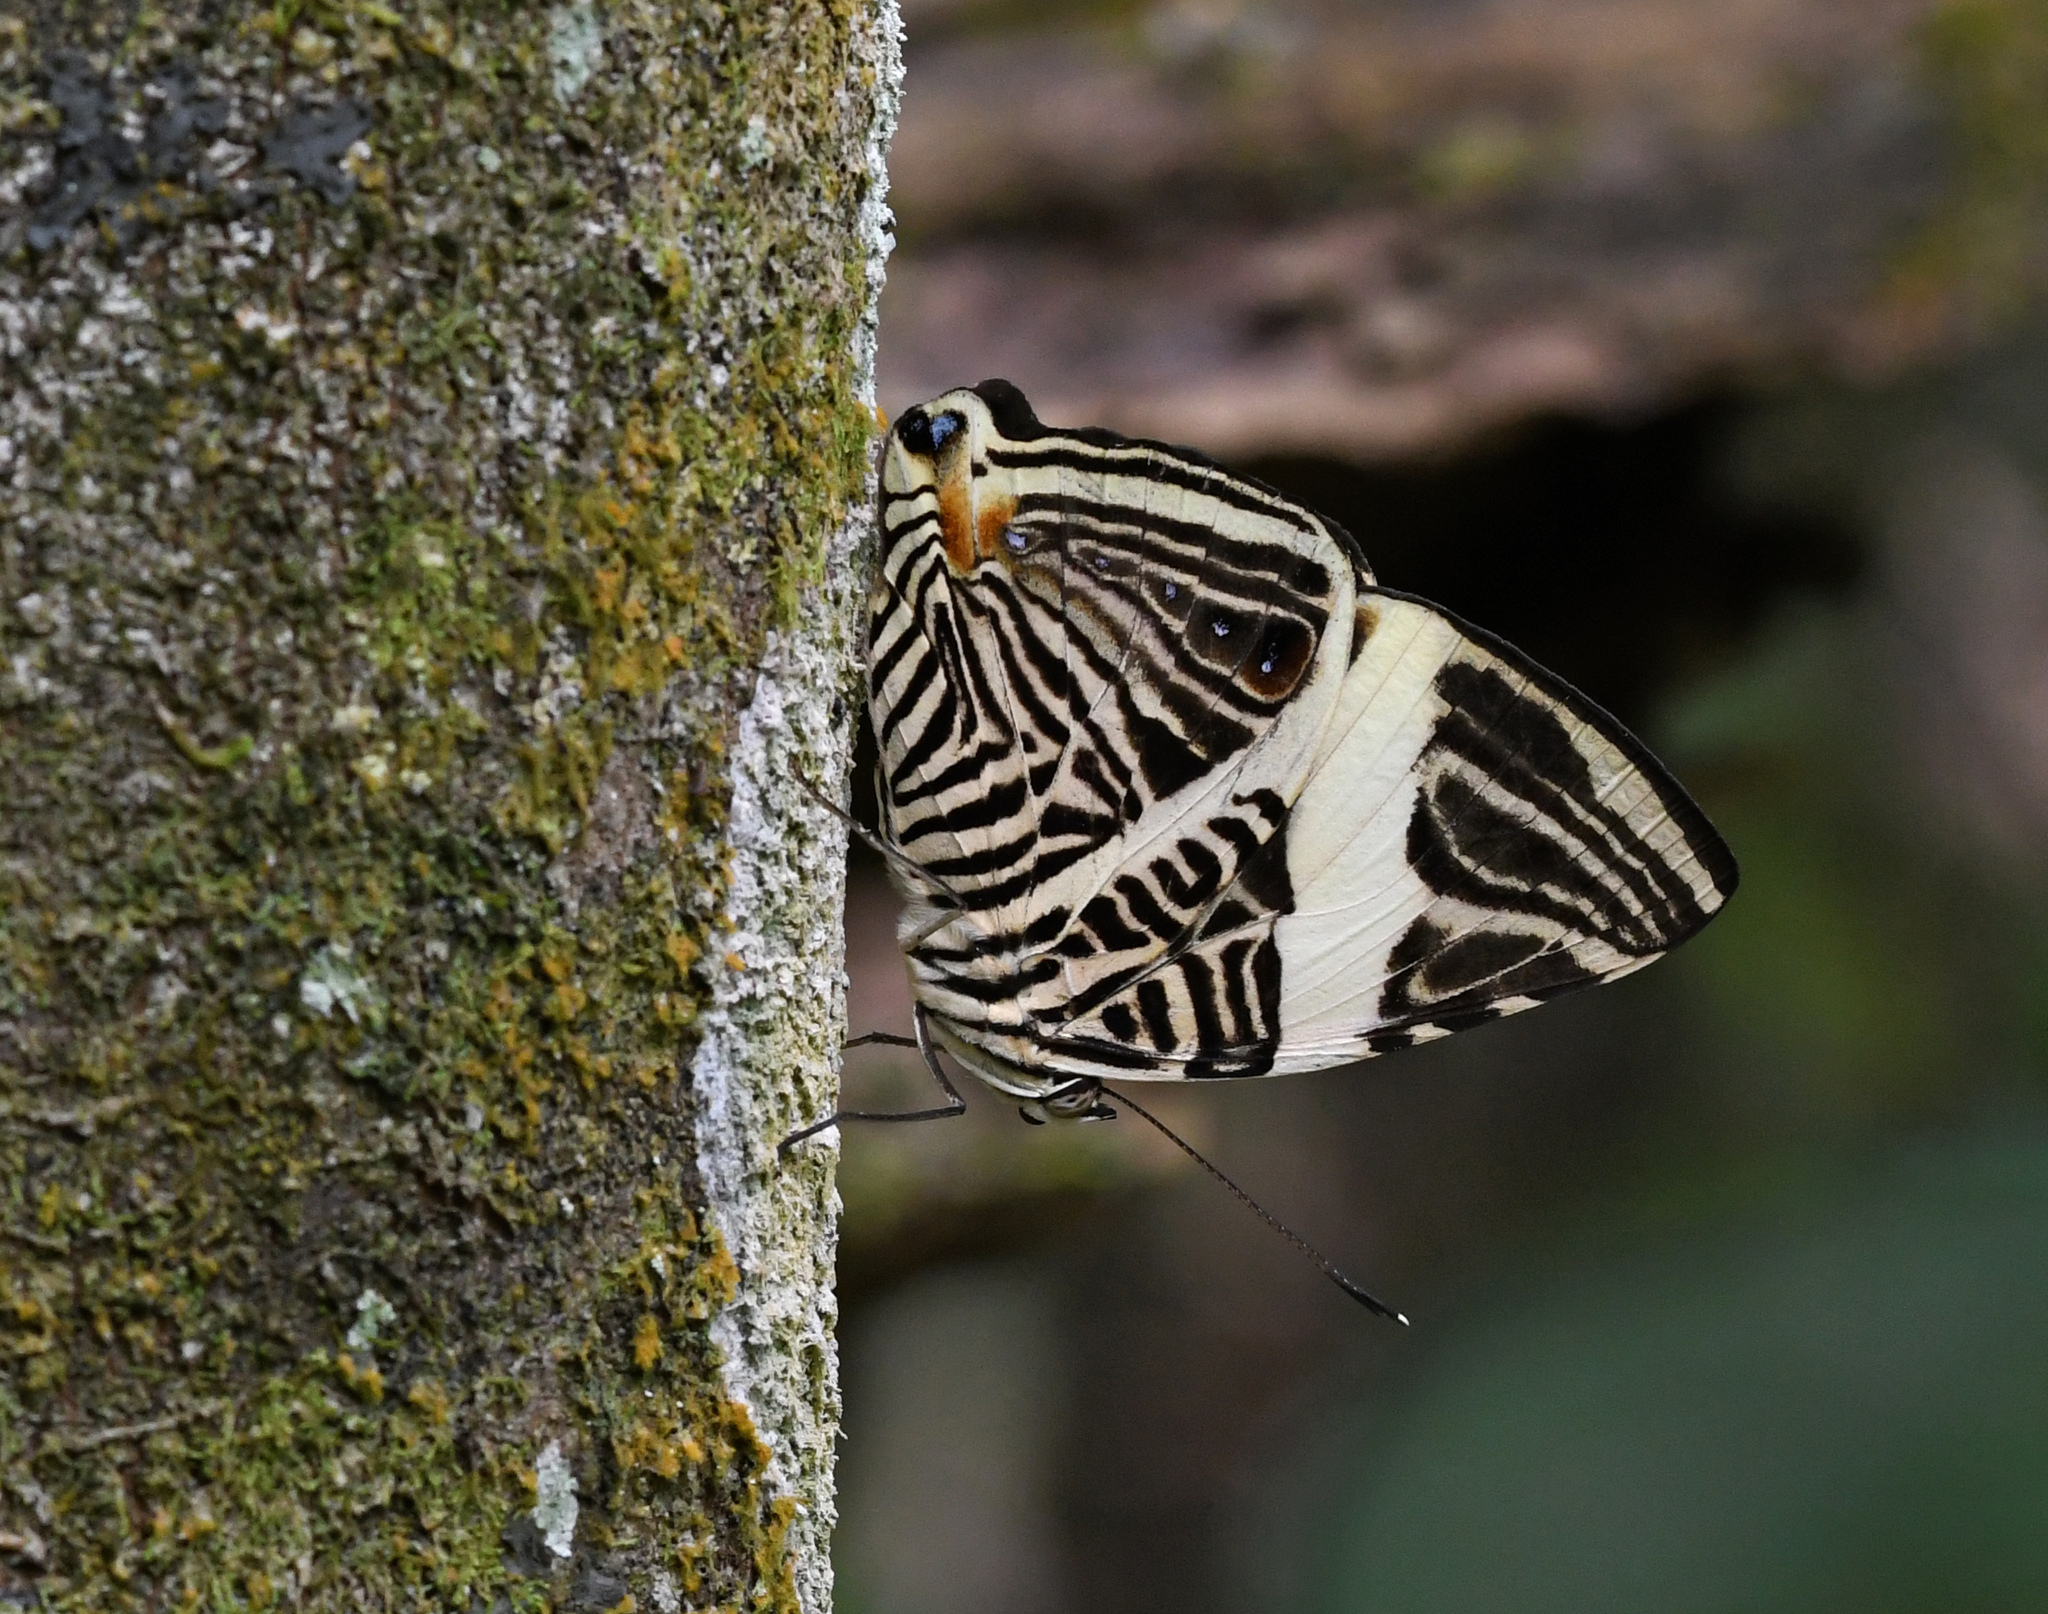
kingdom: Animalia
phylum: Arthropoda
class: Insecta
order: Lepidoptera
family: Nymphalidae
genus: Colobura
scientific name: Colobura dirce
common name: Dirce beauty
